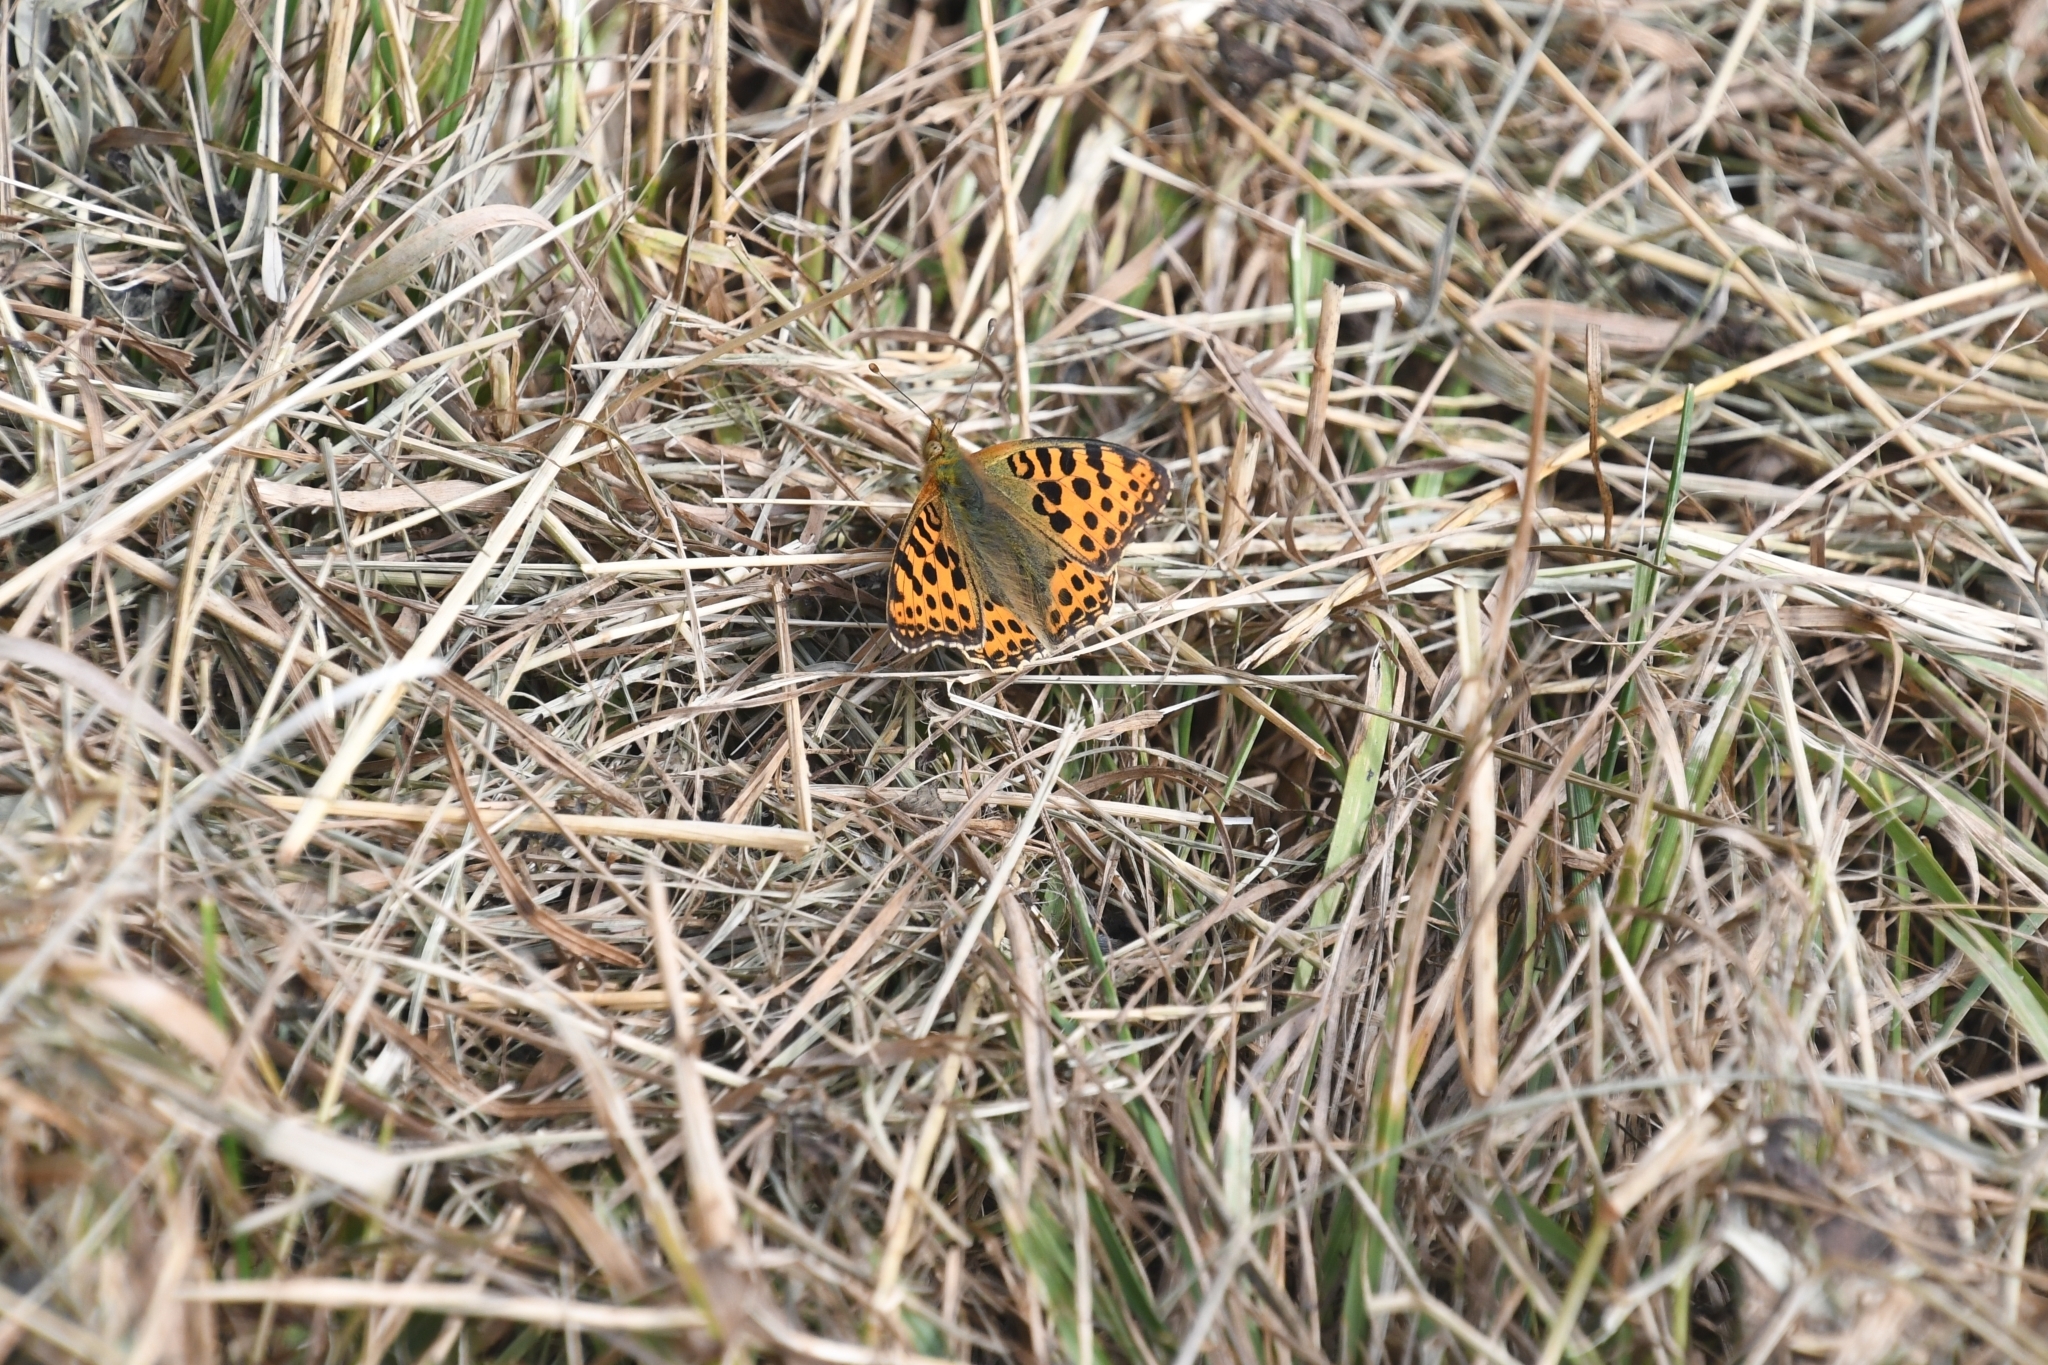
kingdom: Animalia
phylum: Arthropoda
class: Insecta
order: Lepidoptera
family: Nymphalidae
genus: Issoria
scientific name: Issoria lathonia
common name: Queen of spain fritillary
